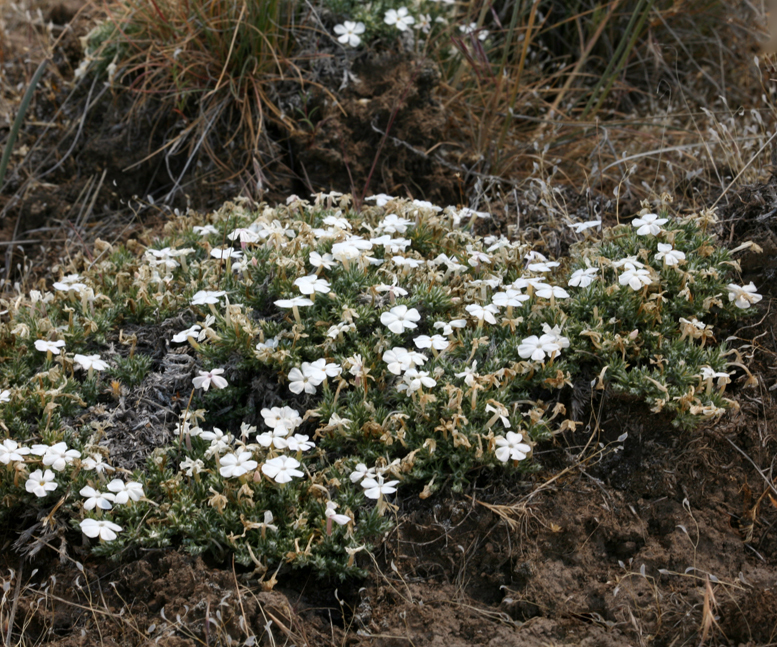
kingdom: Plantae
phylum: Tracheophyta
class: Magnoliopsida
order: Ericales
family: Polemoniaceae
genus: Phlox
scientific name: Phlox hoodii
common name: Moss phlox
